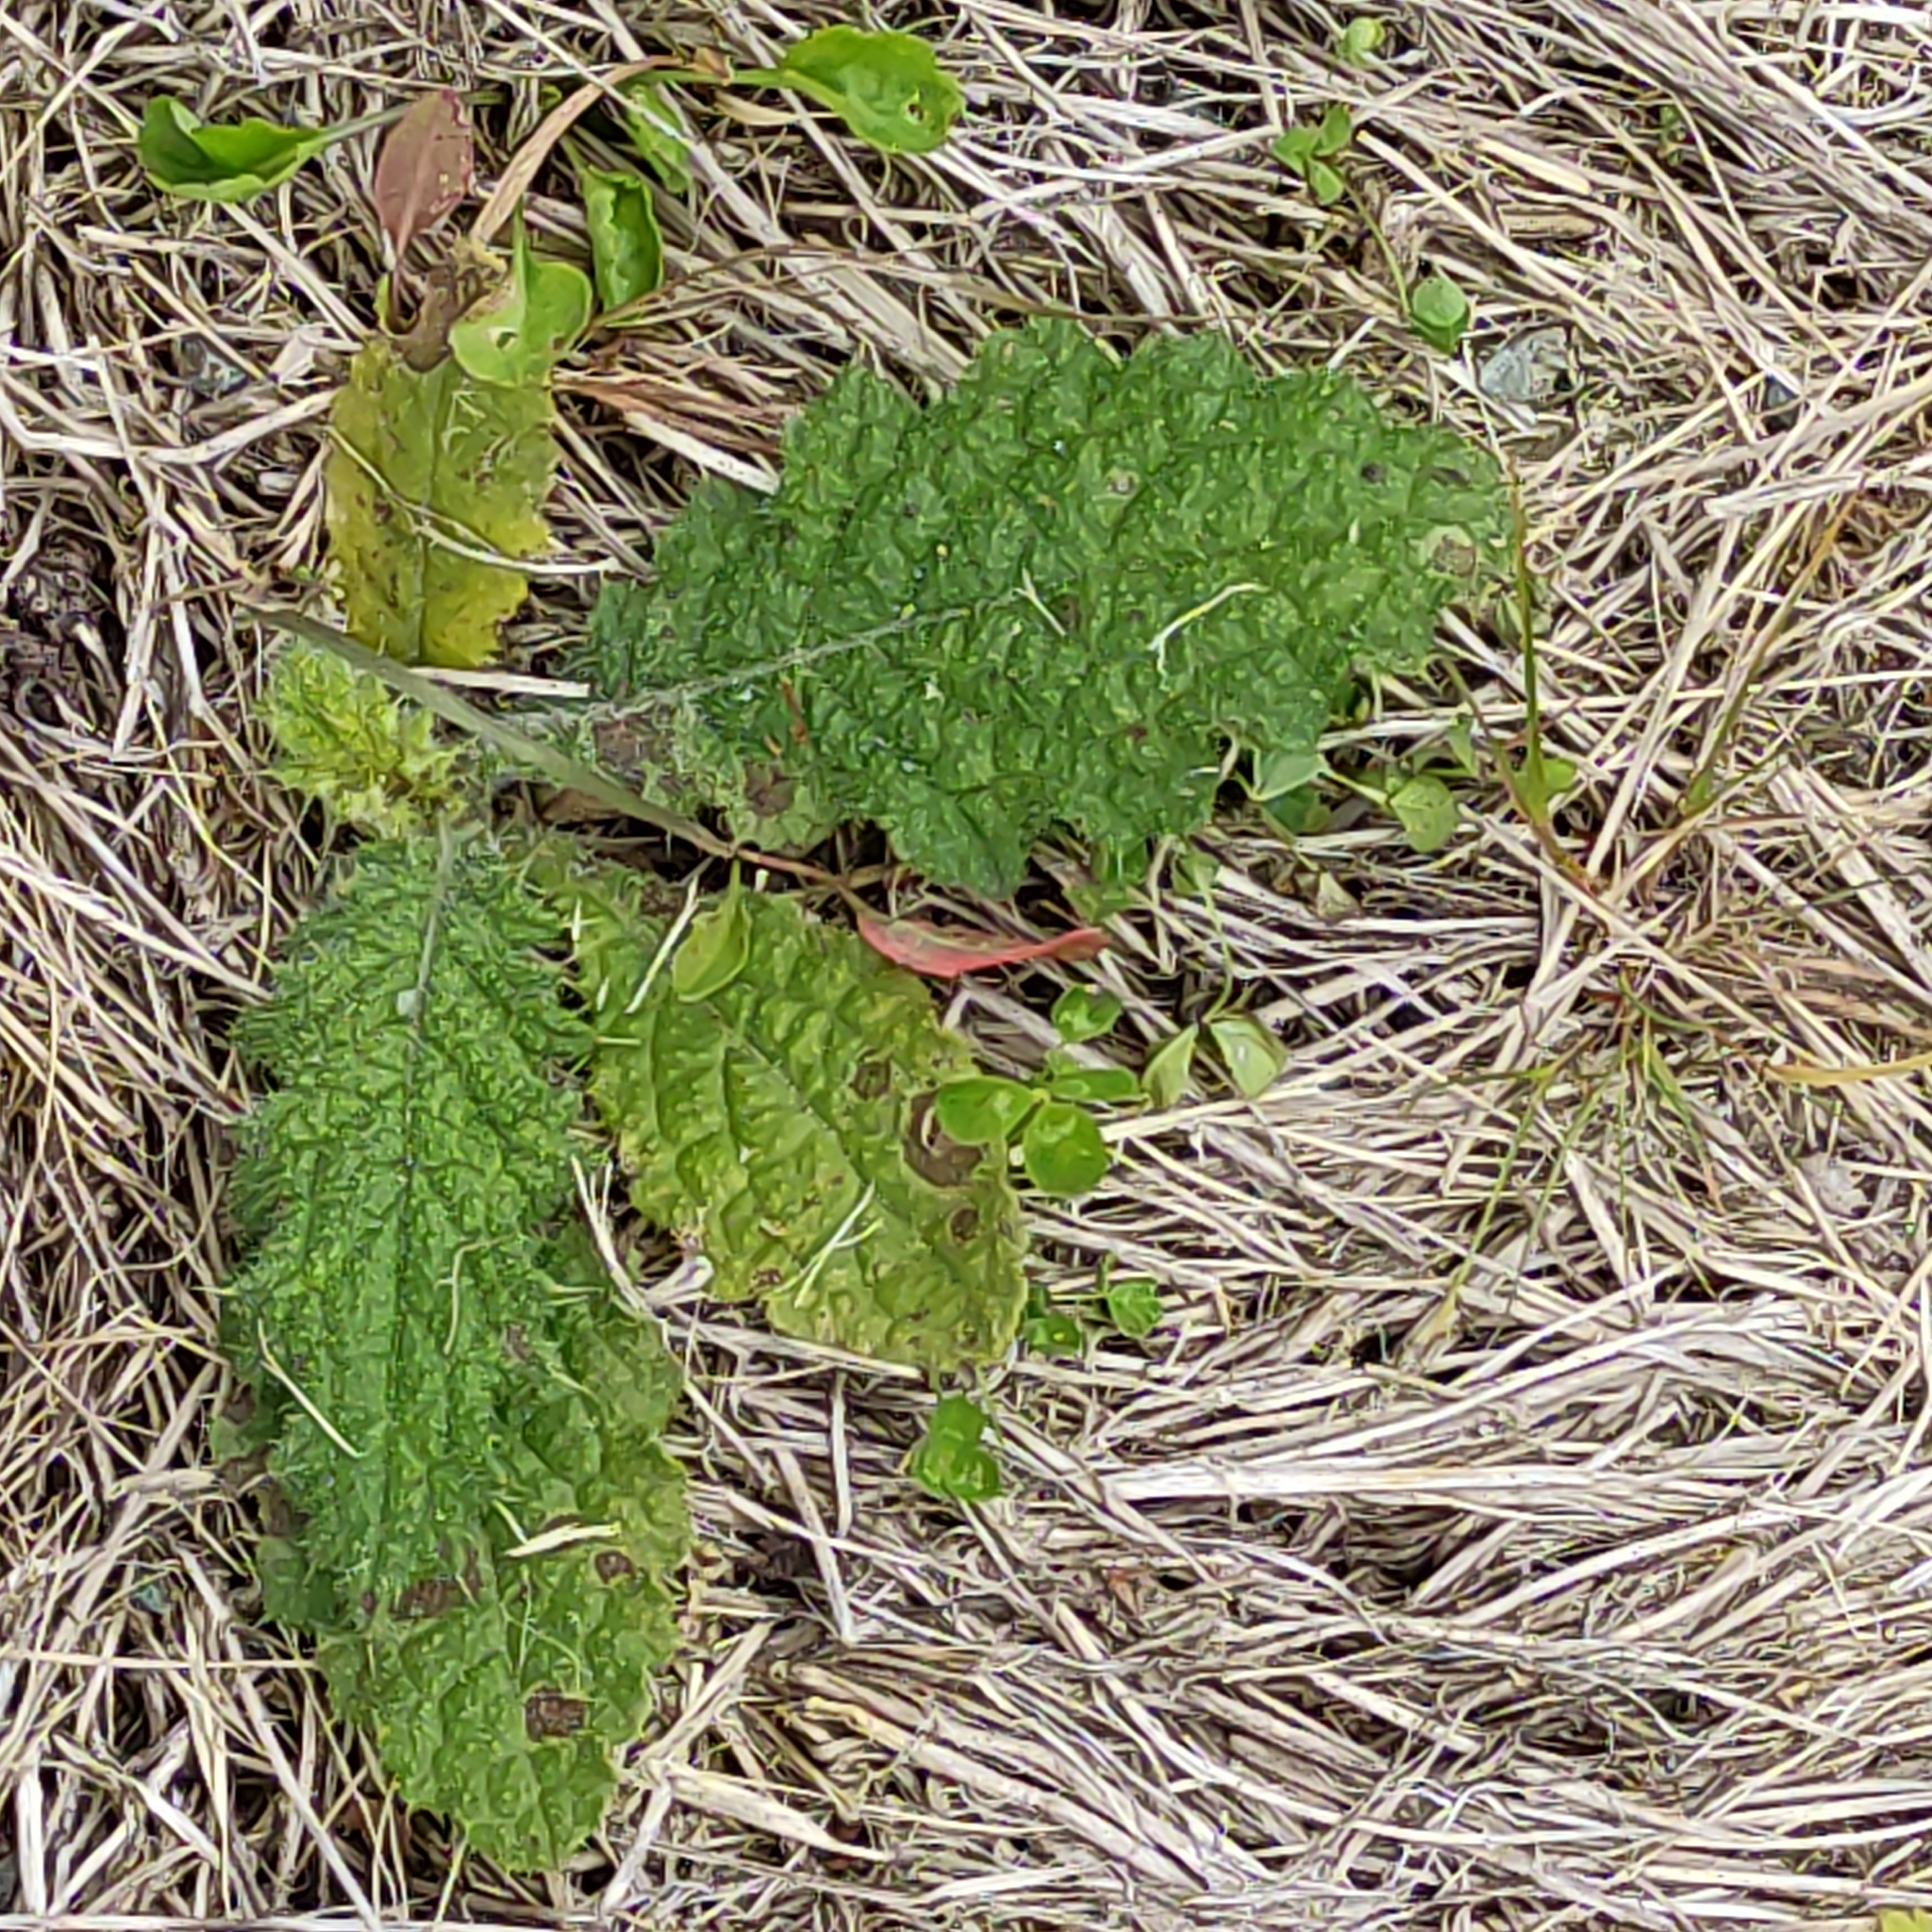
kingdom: Plantae
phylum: Tracheophyta
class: Magnoliopsida
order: Asterales
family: Asteraceae
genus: Cirsium
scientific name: Cirsium vulgare
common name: Bull thistle
